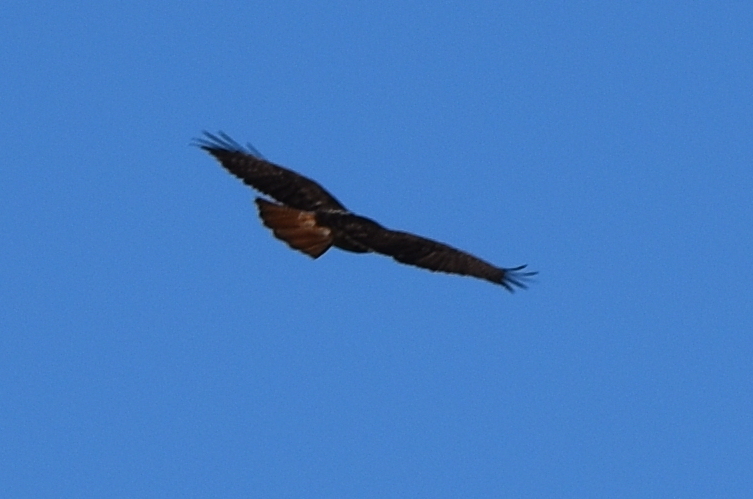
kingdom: Animalia
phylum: Chordata
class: Aves
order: Accipitriformes
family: Accipitridae
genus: Buteo
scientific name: Buteo jamaicensis
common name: Red-tailed hawk
